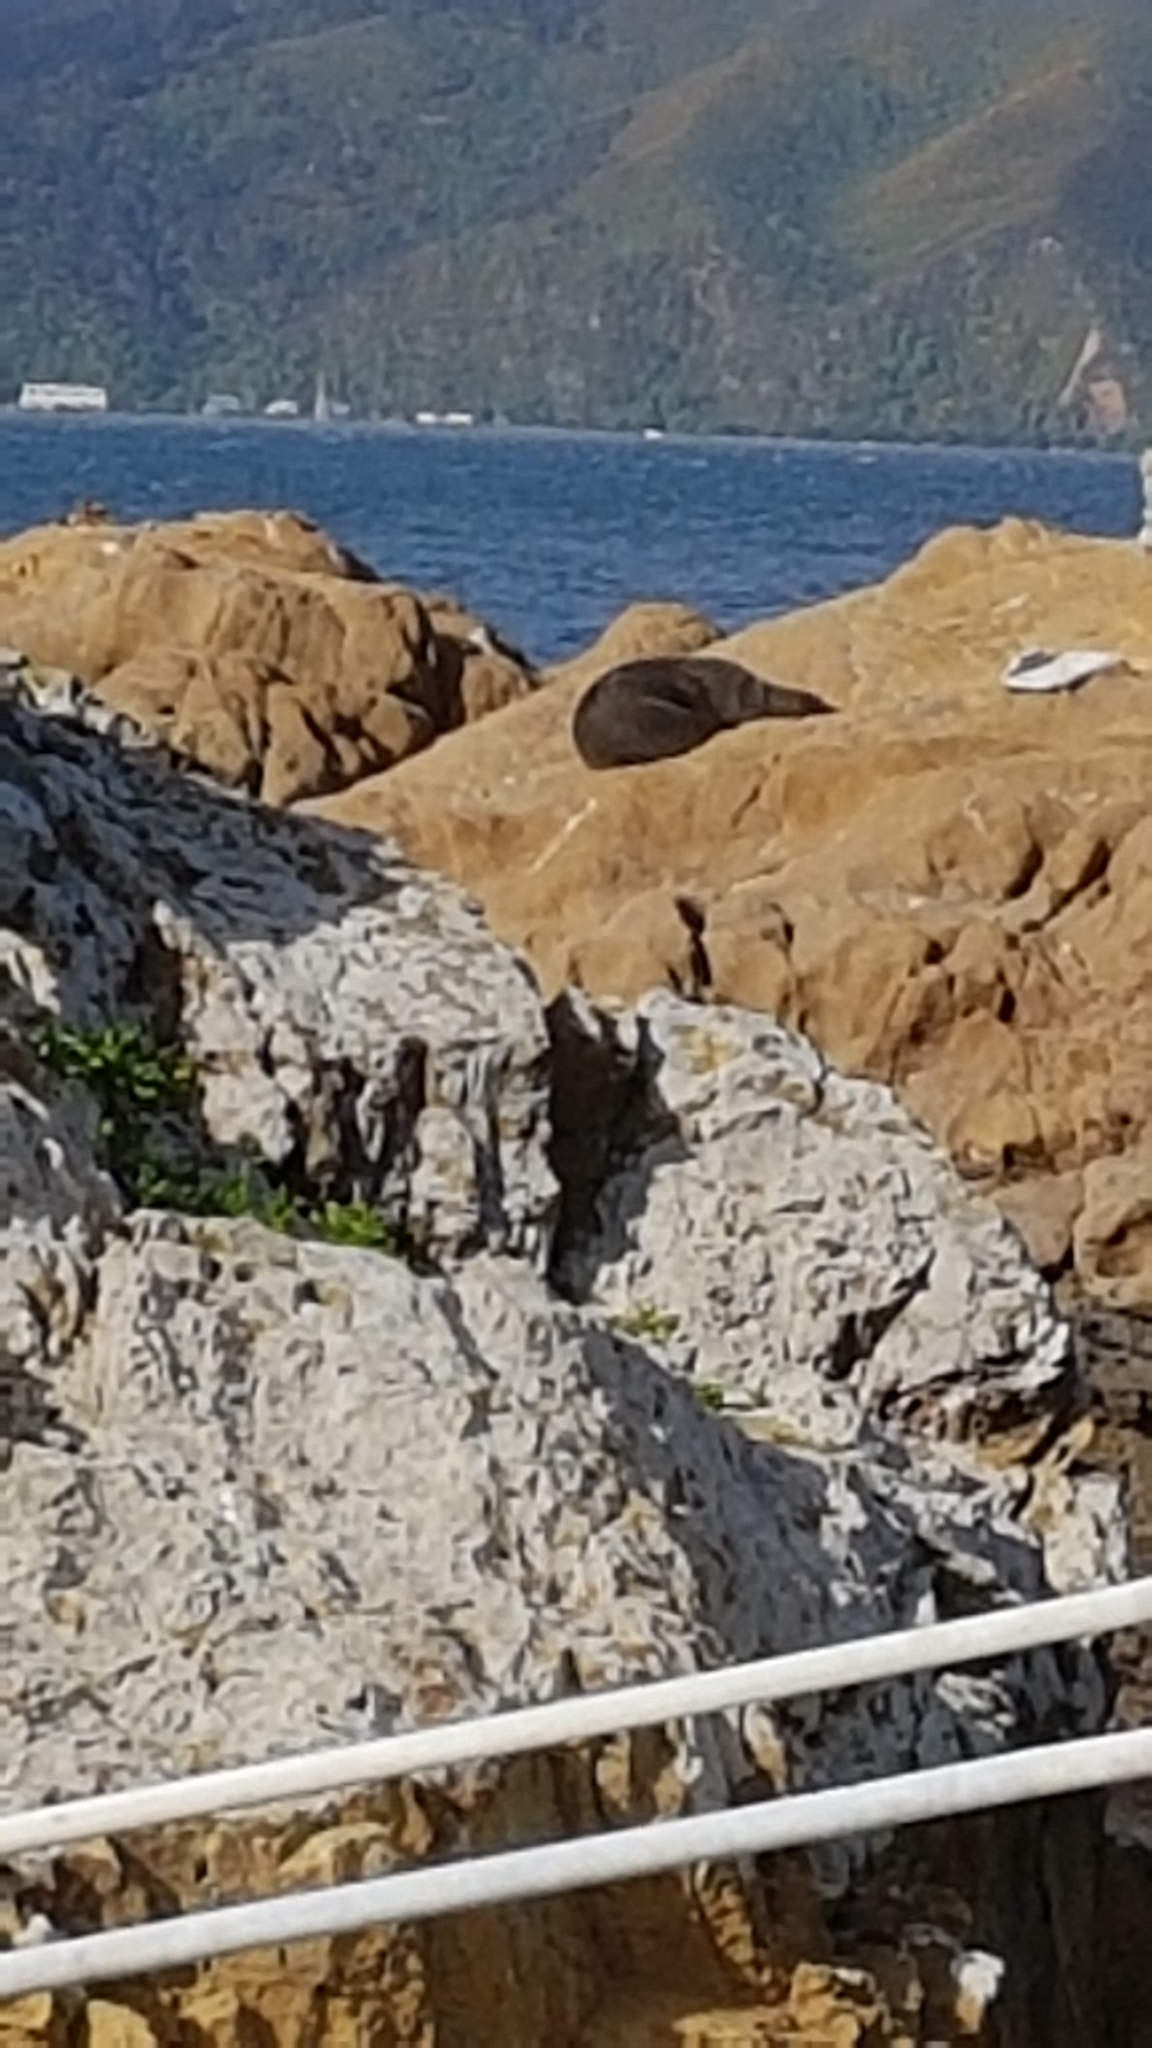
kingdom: Animalia
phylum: Chordata
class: Mammalia
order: Carnivora
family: Otariidae
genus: Arctocephalus
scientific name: Arctocephalus forsteri
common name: New zealand fur seal
